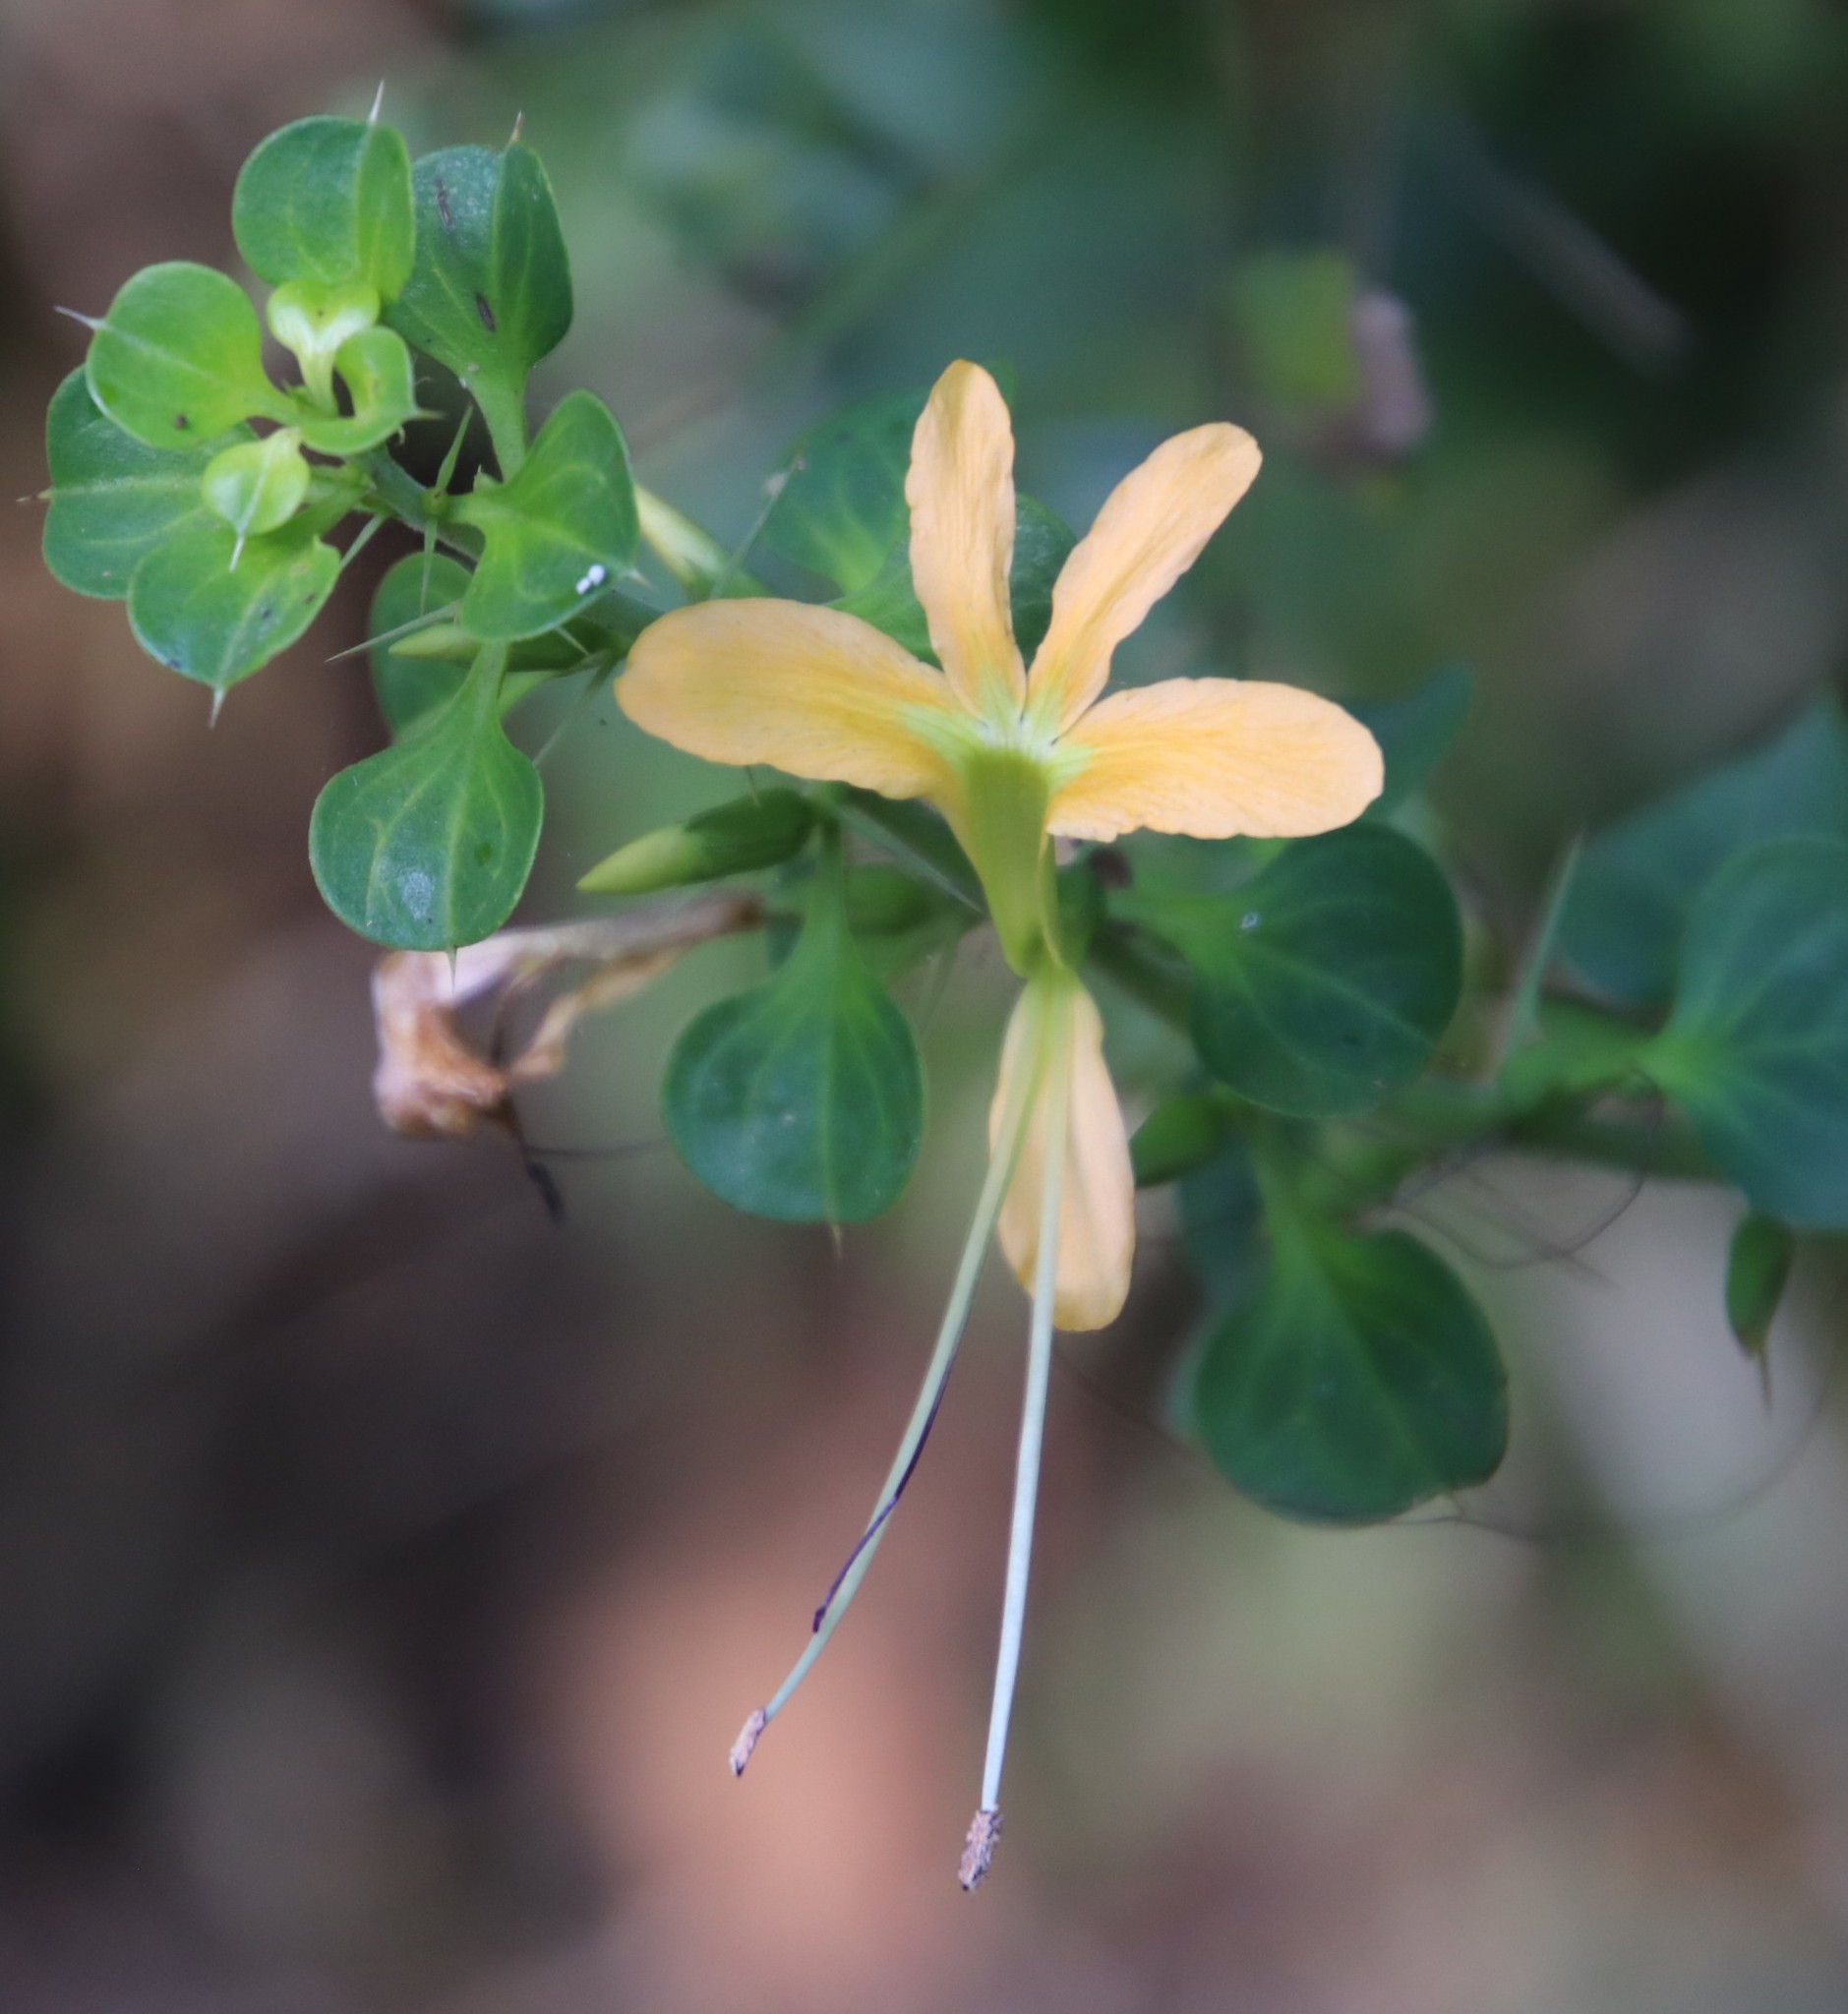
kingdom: Plantae
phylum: Tracheophyta
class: Magnoliopsida
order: Lamiales
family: Acanthaceae
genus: Barleria
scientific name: Barleria rotundifolia
